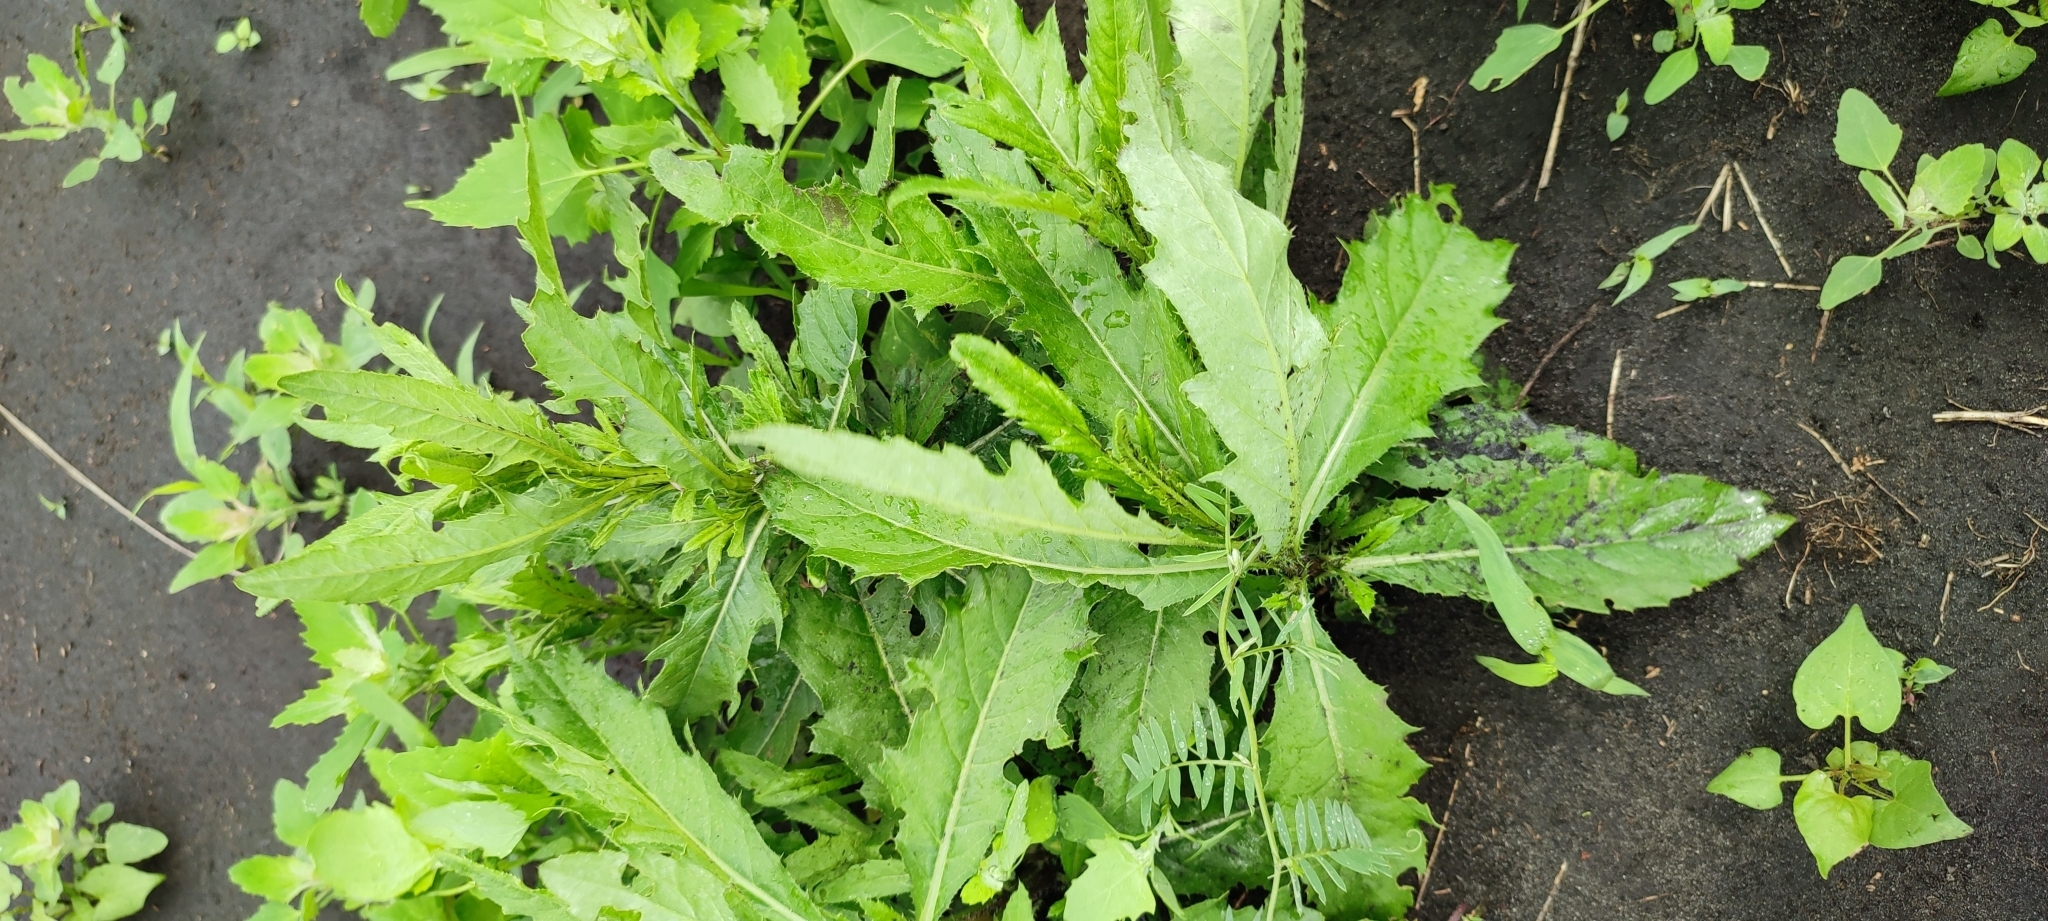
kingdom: Plantae
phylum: Tracheophyta
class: Magnoliopsida
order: Asterales
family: Asteraceae
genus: Cirsium
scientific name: Cirsium arvense
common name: Creeping thistle
